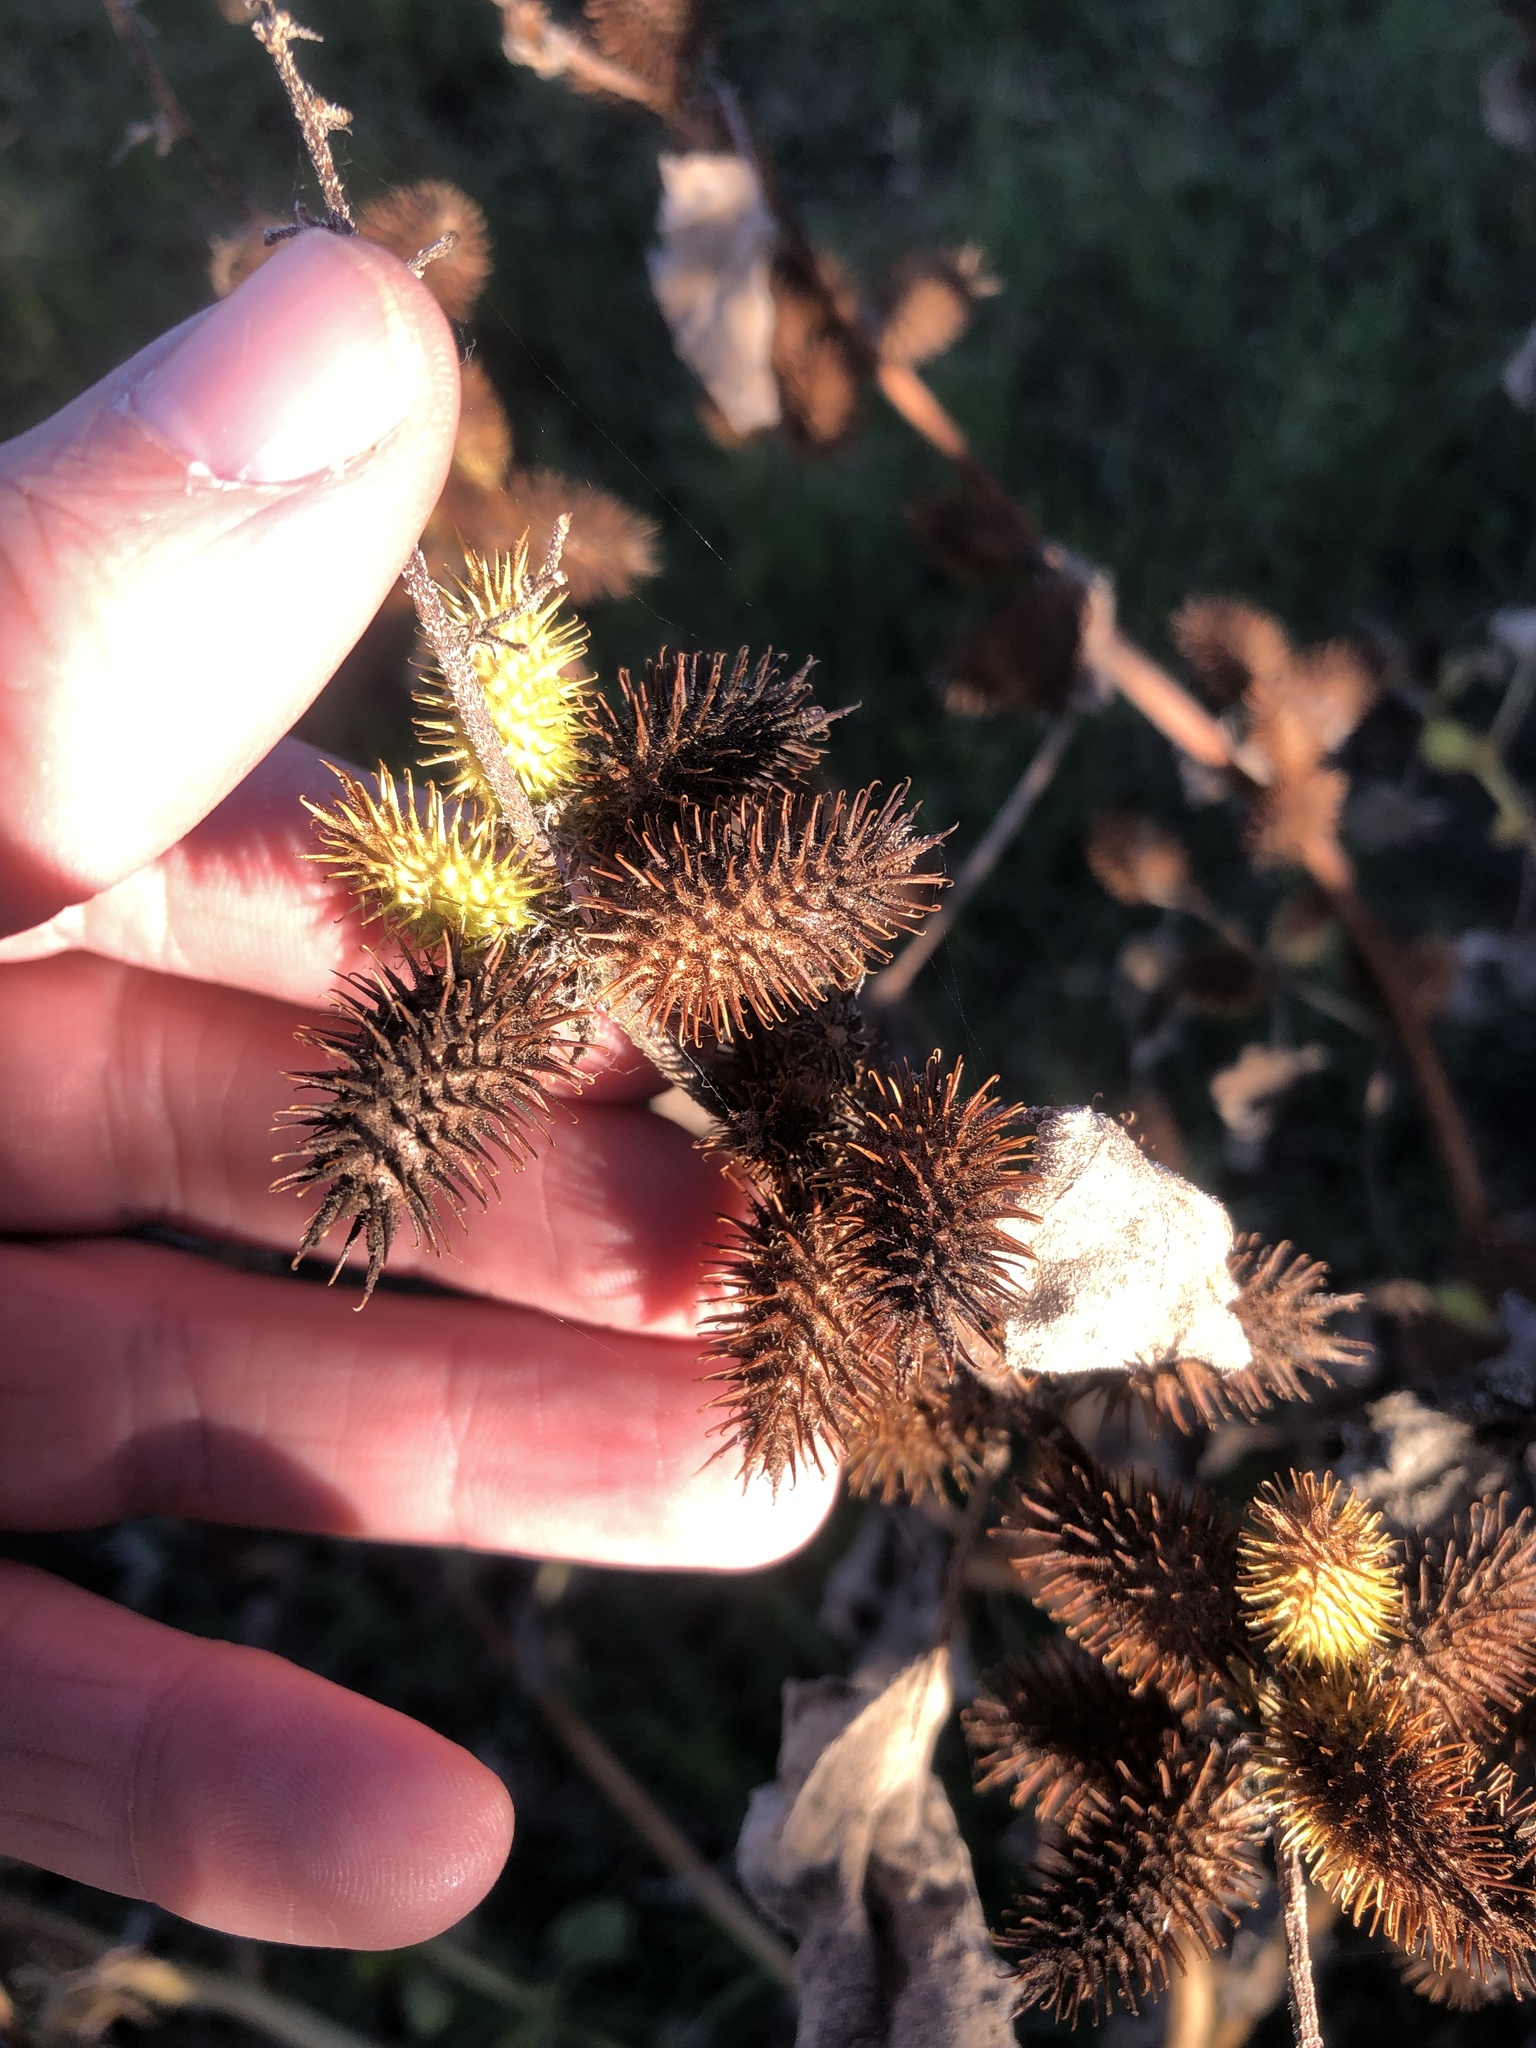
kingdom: Plantae
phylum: Tracheophyta
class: Magnoliopsida
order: Asterales
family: Asteraceae
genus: Xanthium
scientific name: Xanthium strumarium
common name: Rough cocklebur
